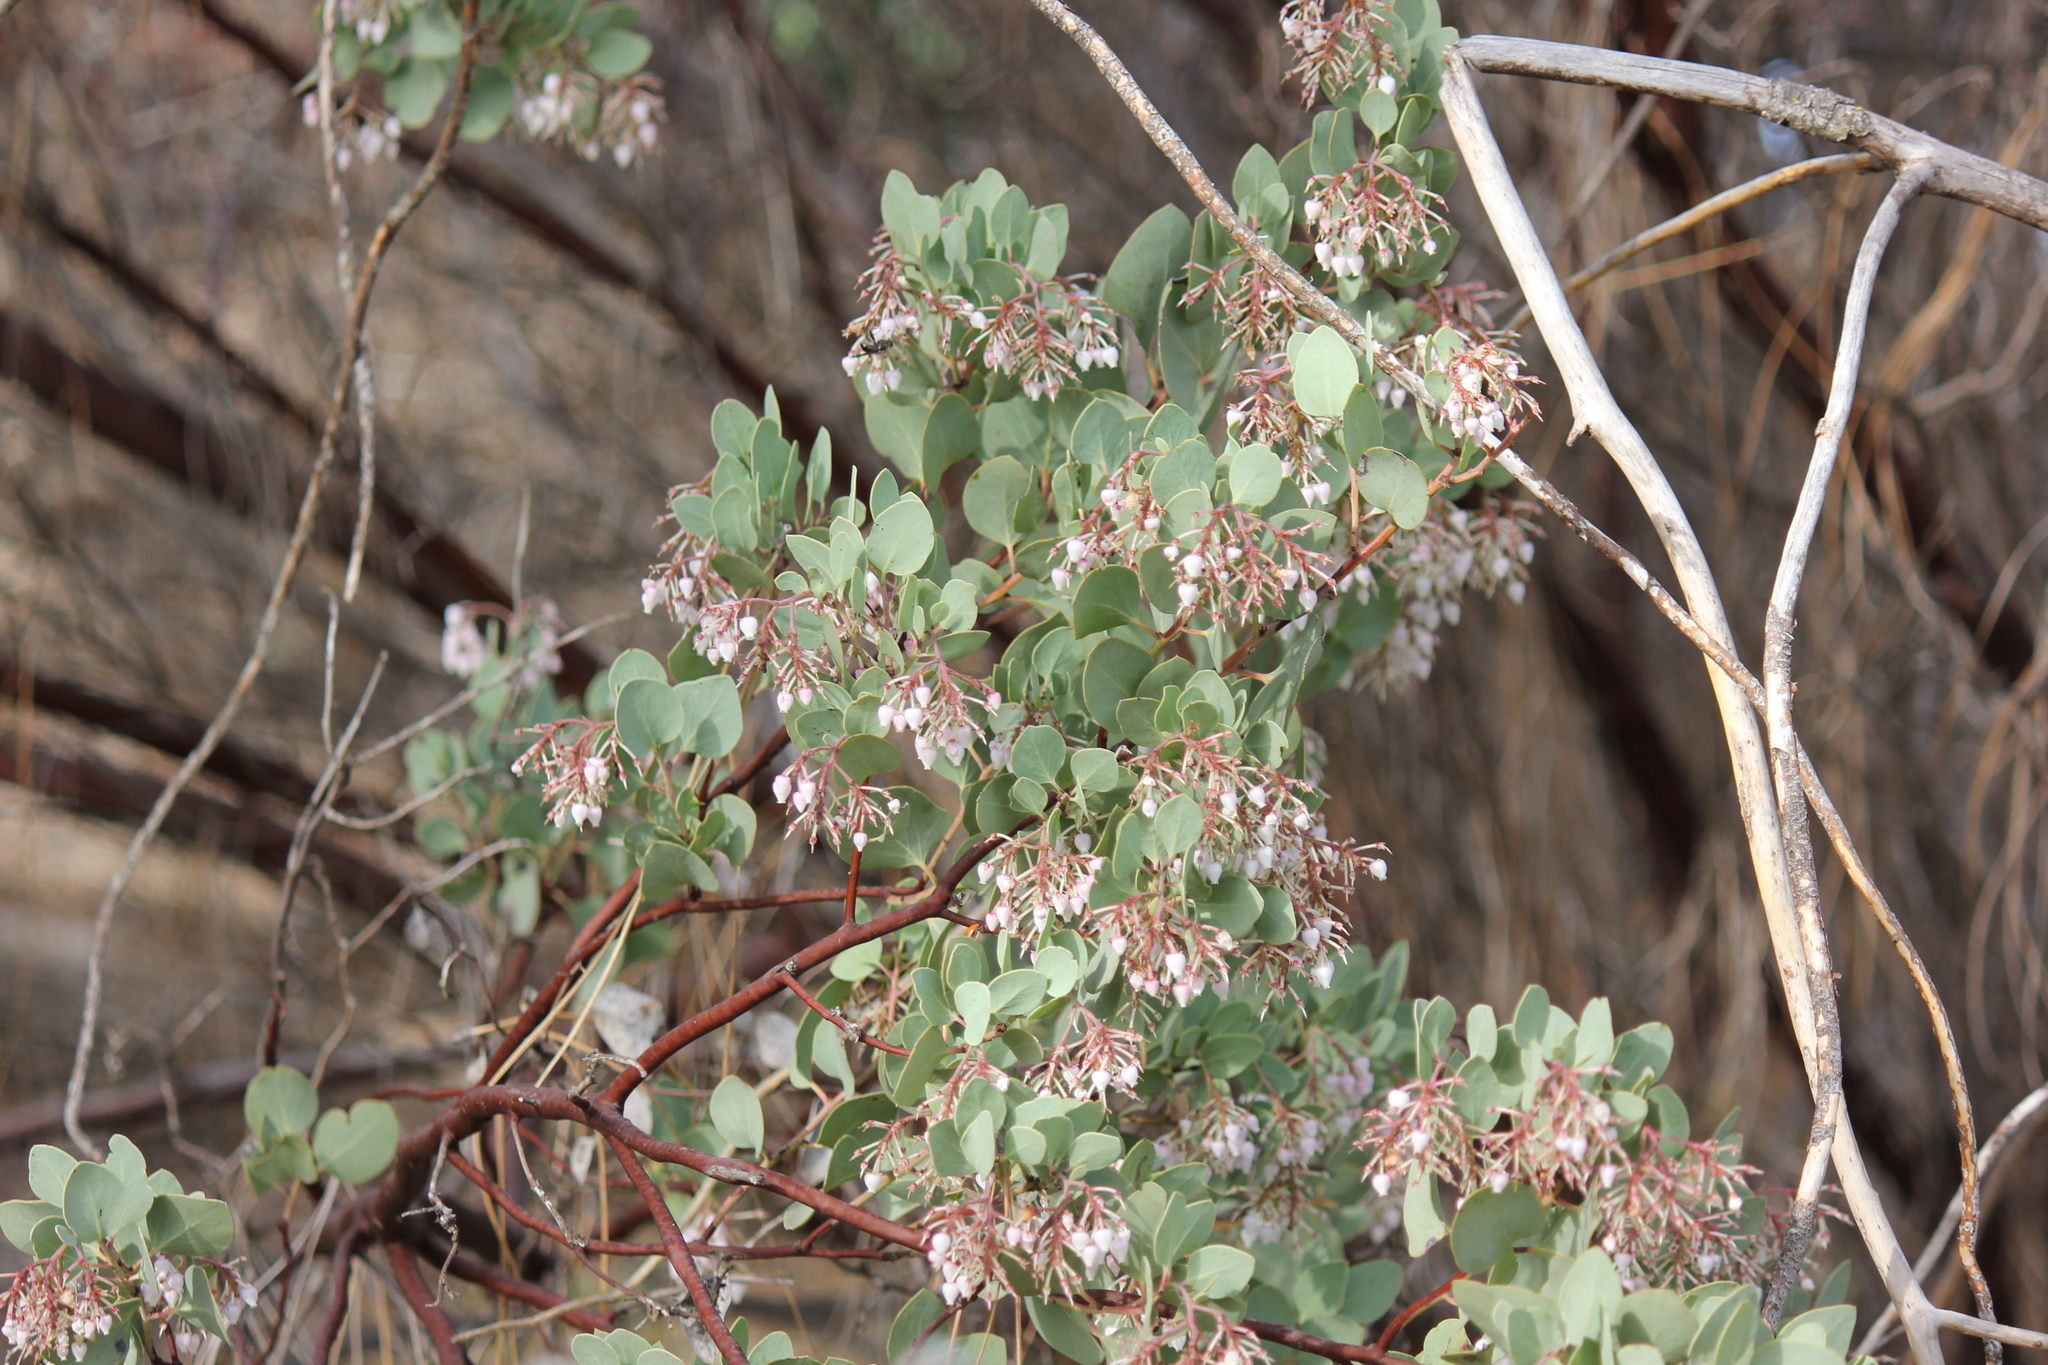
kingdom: Plantae
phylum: Tracheophyta
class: Magnoliopsida
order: Ericales
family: Ericaceae
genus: Arctostaphylos
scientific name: Arctostaphylos viscida
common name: White-leaf manzanita
